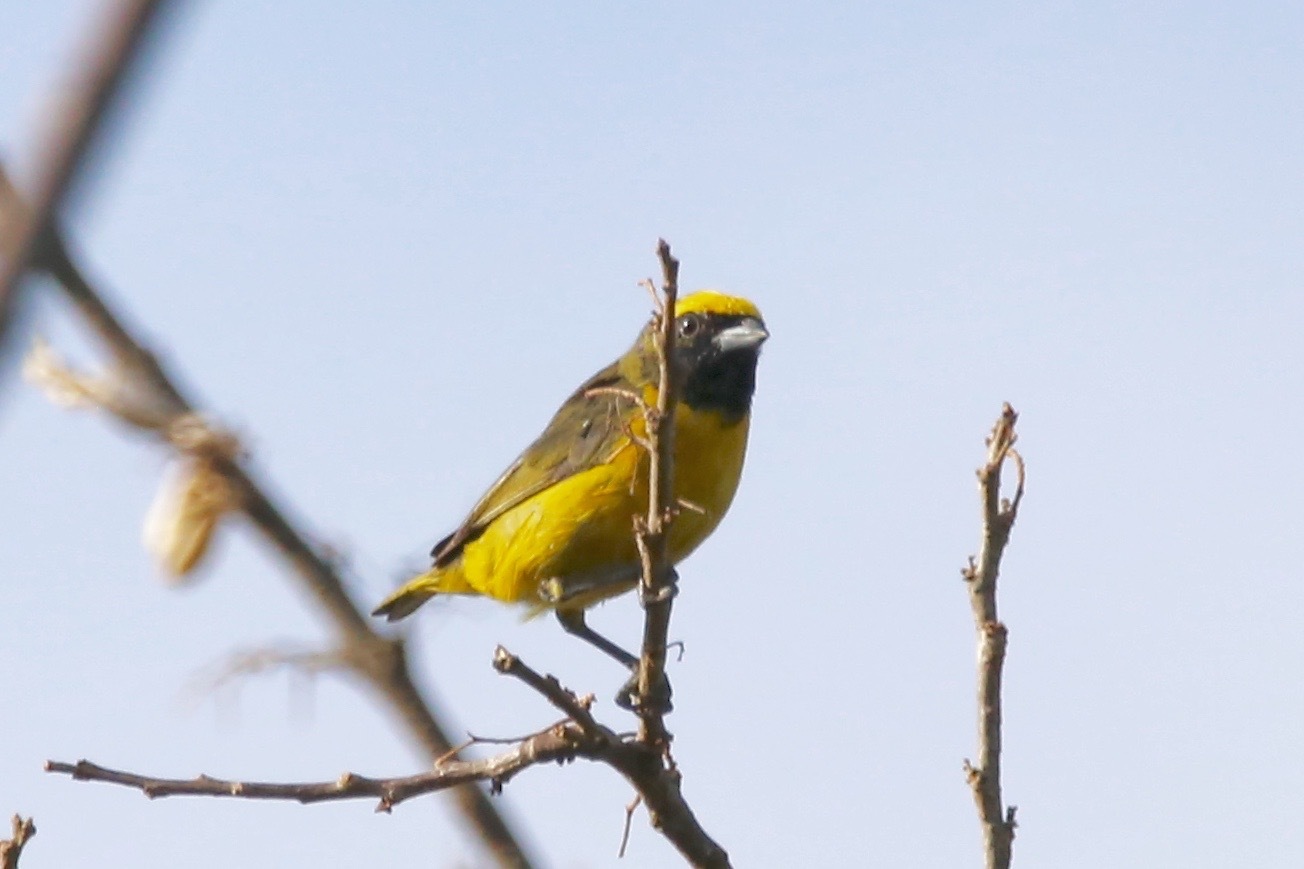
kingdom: Animalia
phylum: Chordata
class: Aves
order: Passeriformes
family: Fringillidae
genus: Euphonia
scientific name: Euphonia luteicapilla
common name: Yellow-crowned euphonia
